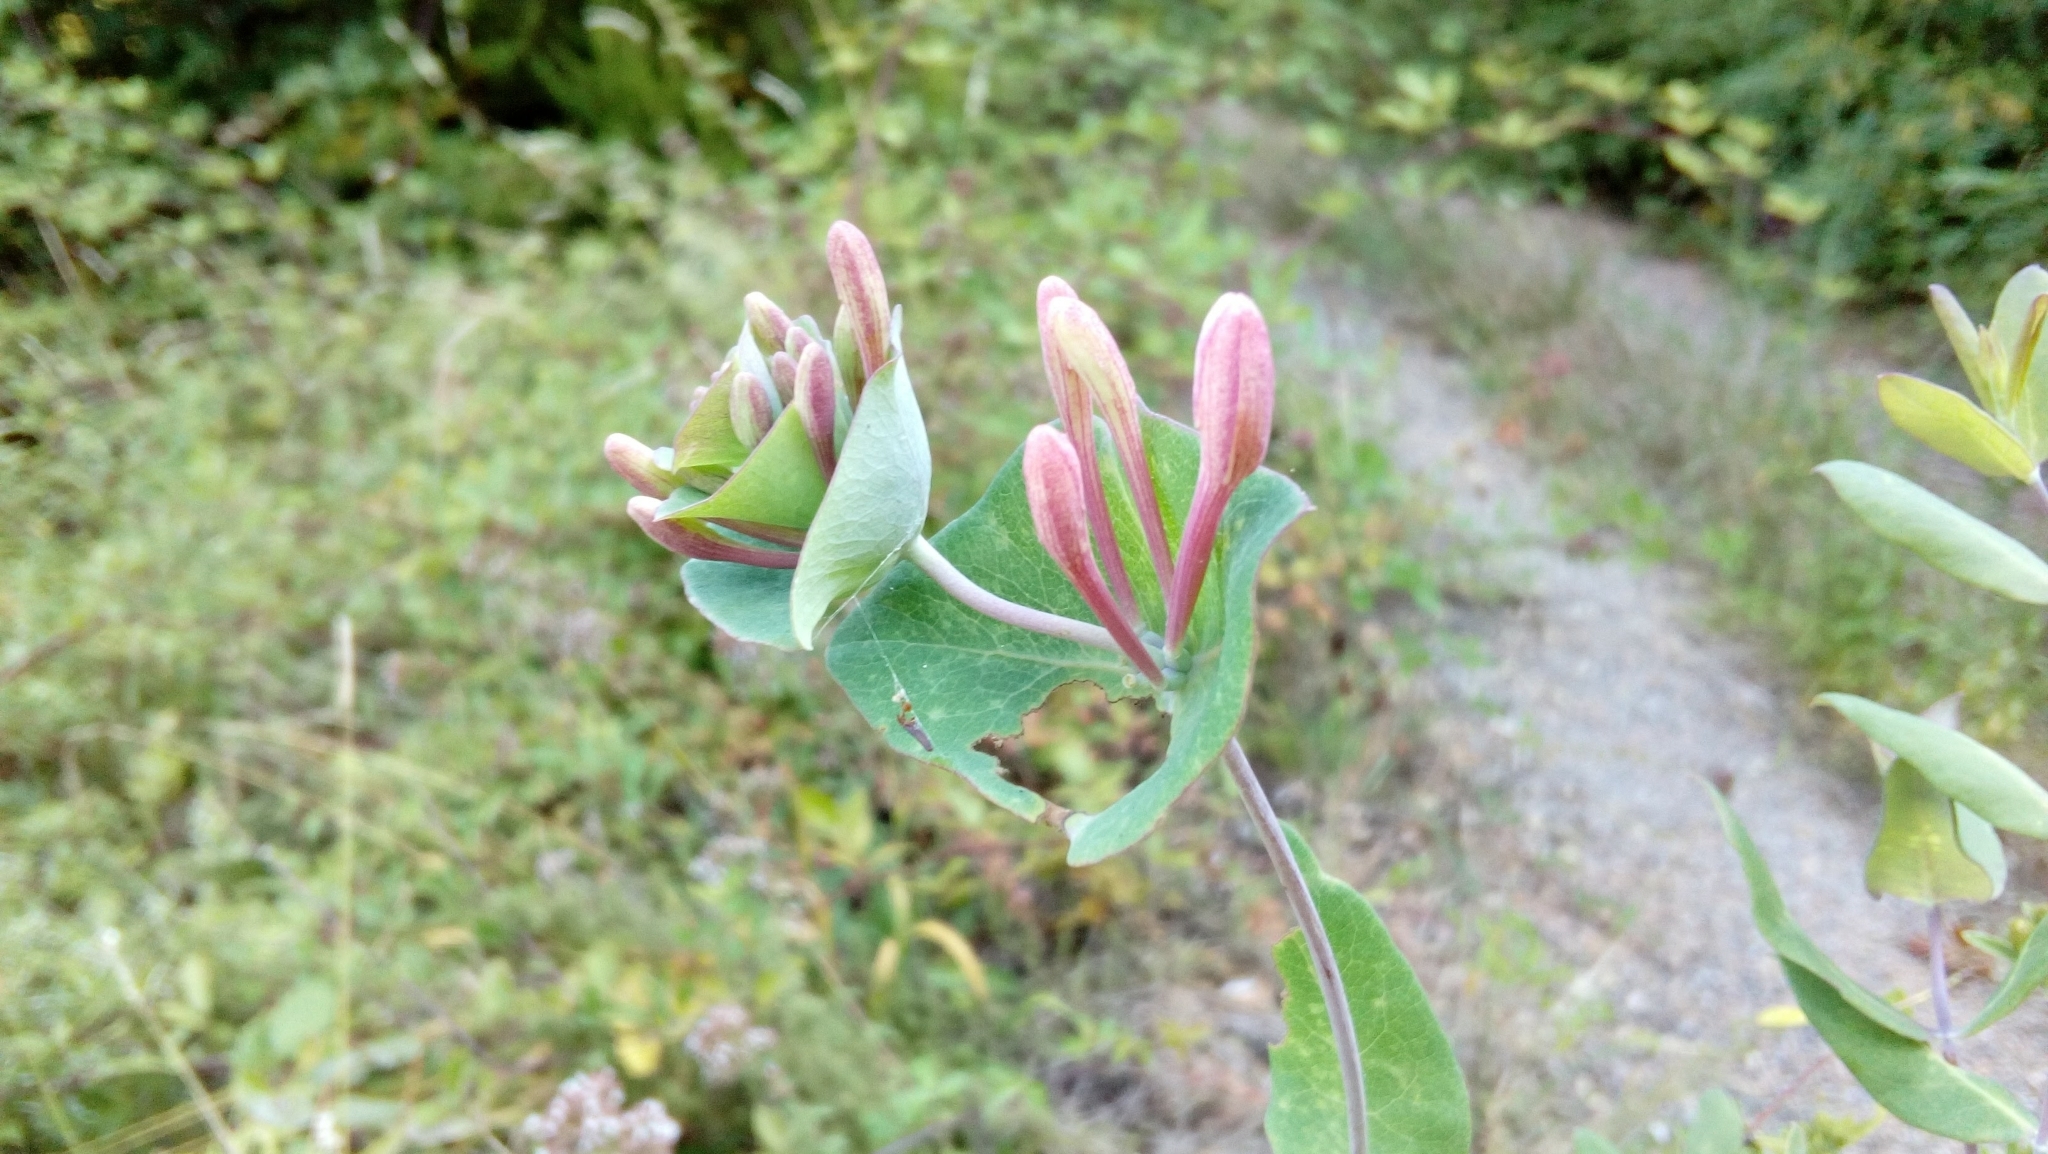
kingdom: Plantae
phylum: Tracheophyta
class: Magnoliopsida
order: Dipsacales
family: Caprifoliaceae
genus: Lonicera
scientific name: Lonicera implexa
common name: Minorca honeysuckle
